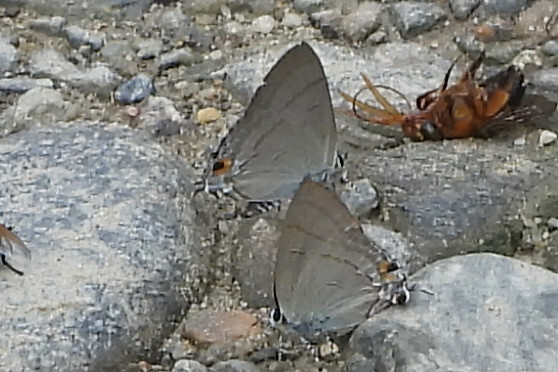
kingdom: Animalia
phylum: Arthropoda
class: Insecta
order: Lepidoptera
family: Lycaenidae
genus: Hypolycaena
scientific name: Hypolycaena erylus
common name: Common tit
